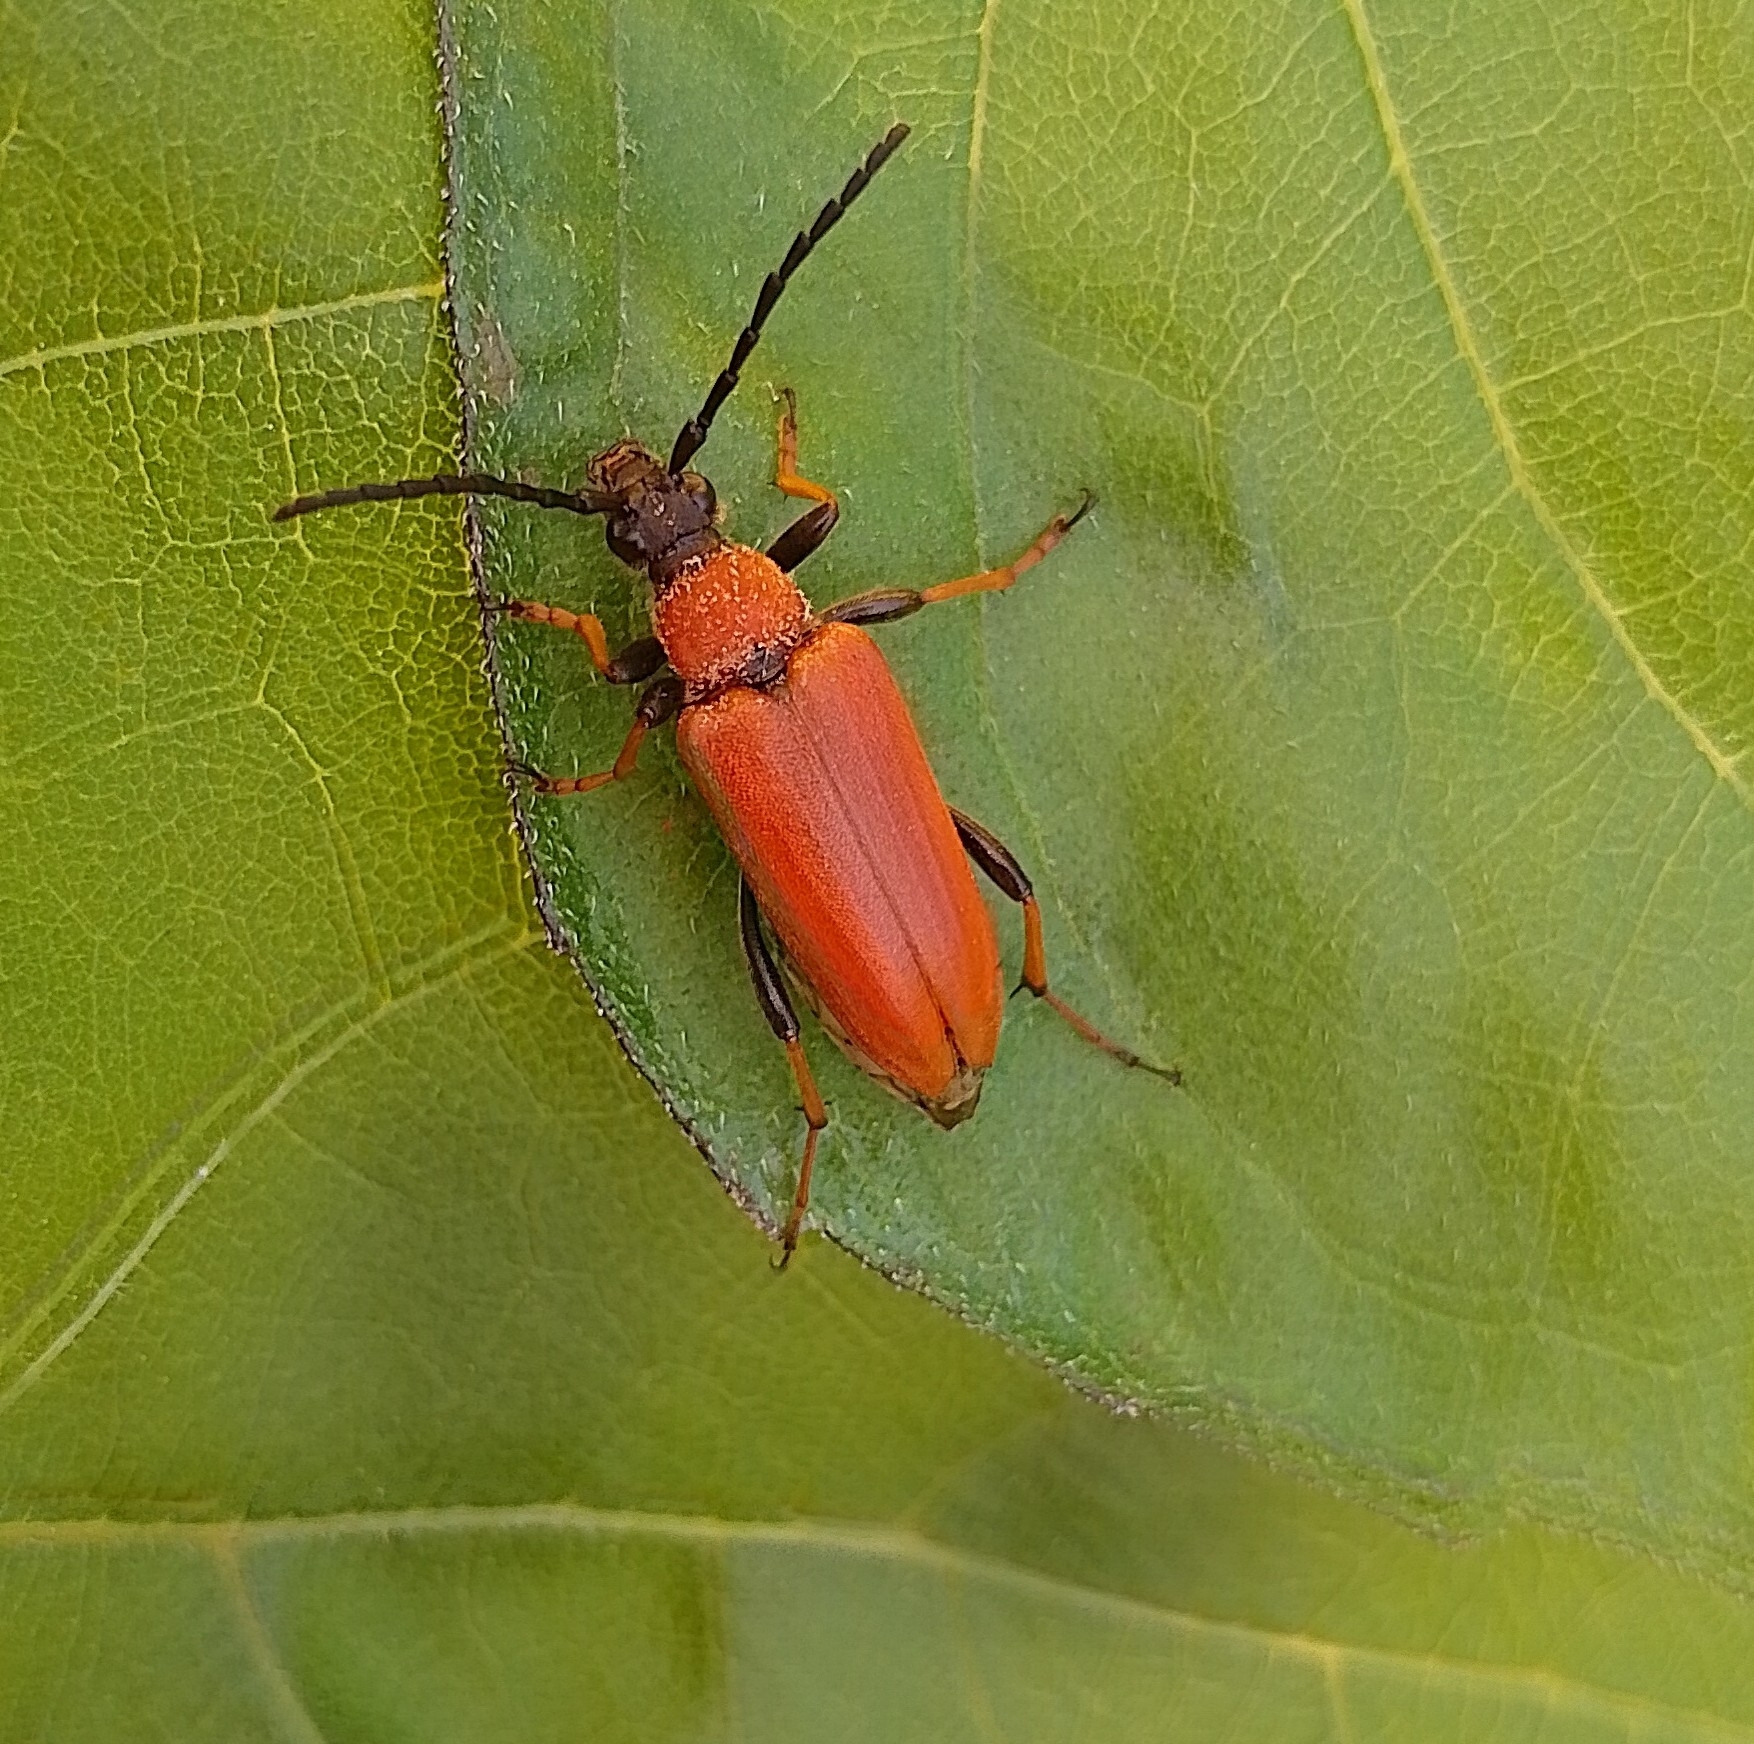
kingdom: Animalia
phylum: Arthropoda
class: Insecta
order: Coleoptera
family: Cerambycidae
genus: Stictoleptura
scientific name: Stictoleptura rubra
